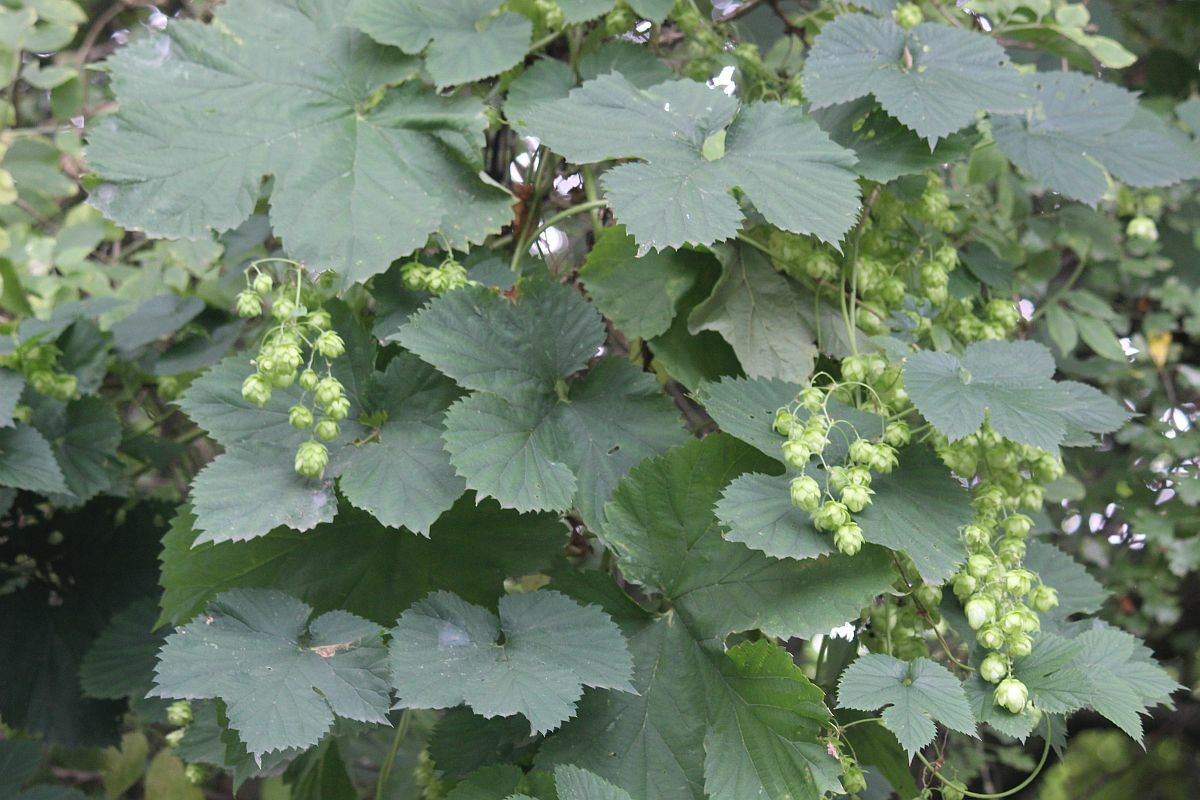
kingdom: Plantae
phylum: Tracheophyta
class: Magnoliopsida
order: Rosales
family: Cannabaceae
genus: Humulus
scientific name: Humulus lupulus
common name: Hop
